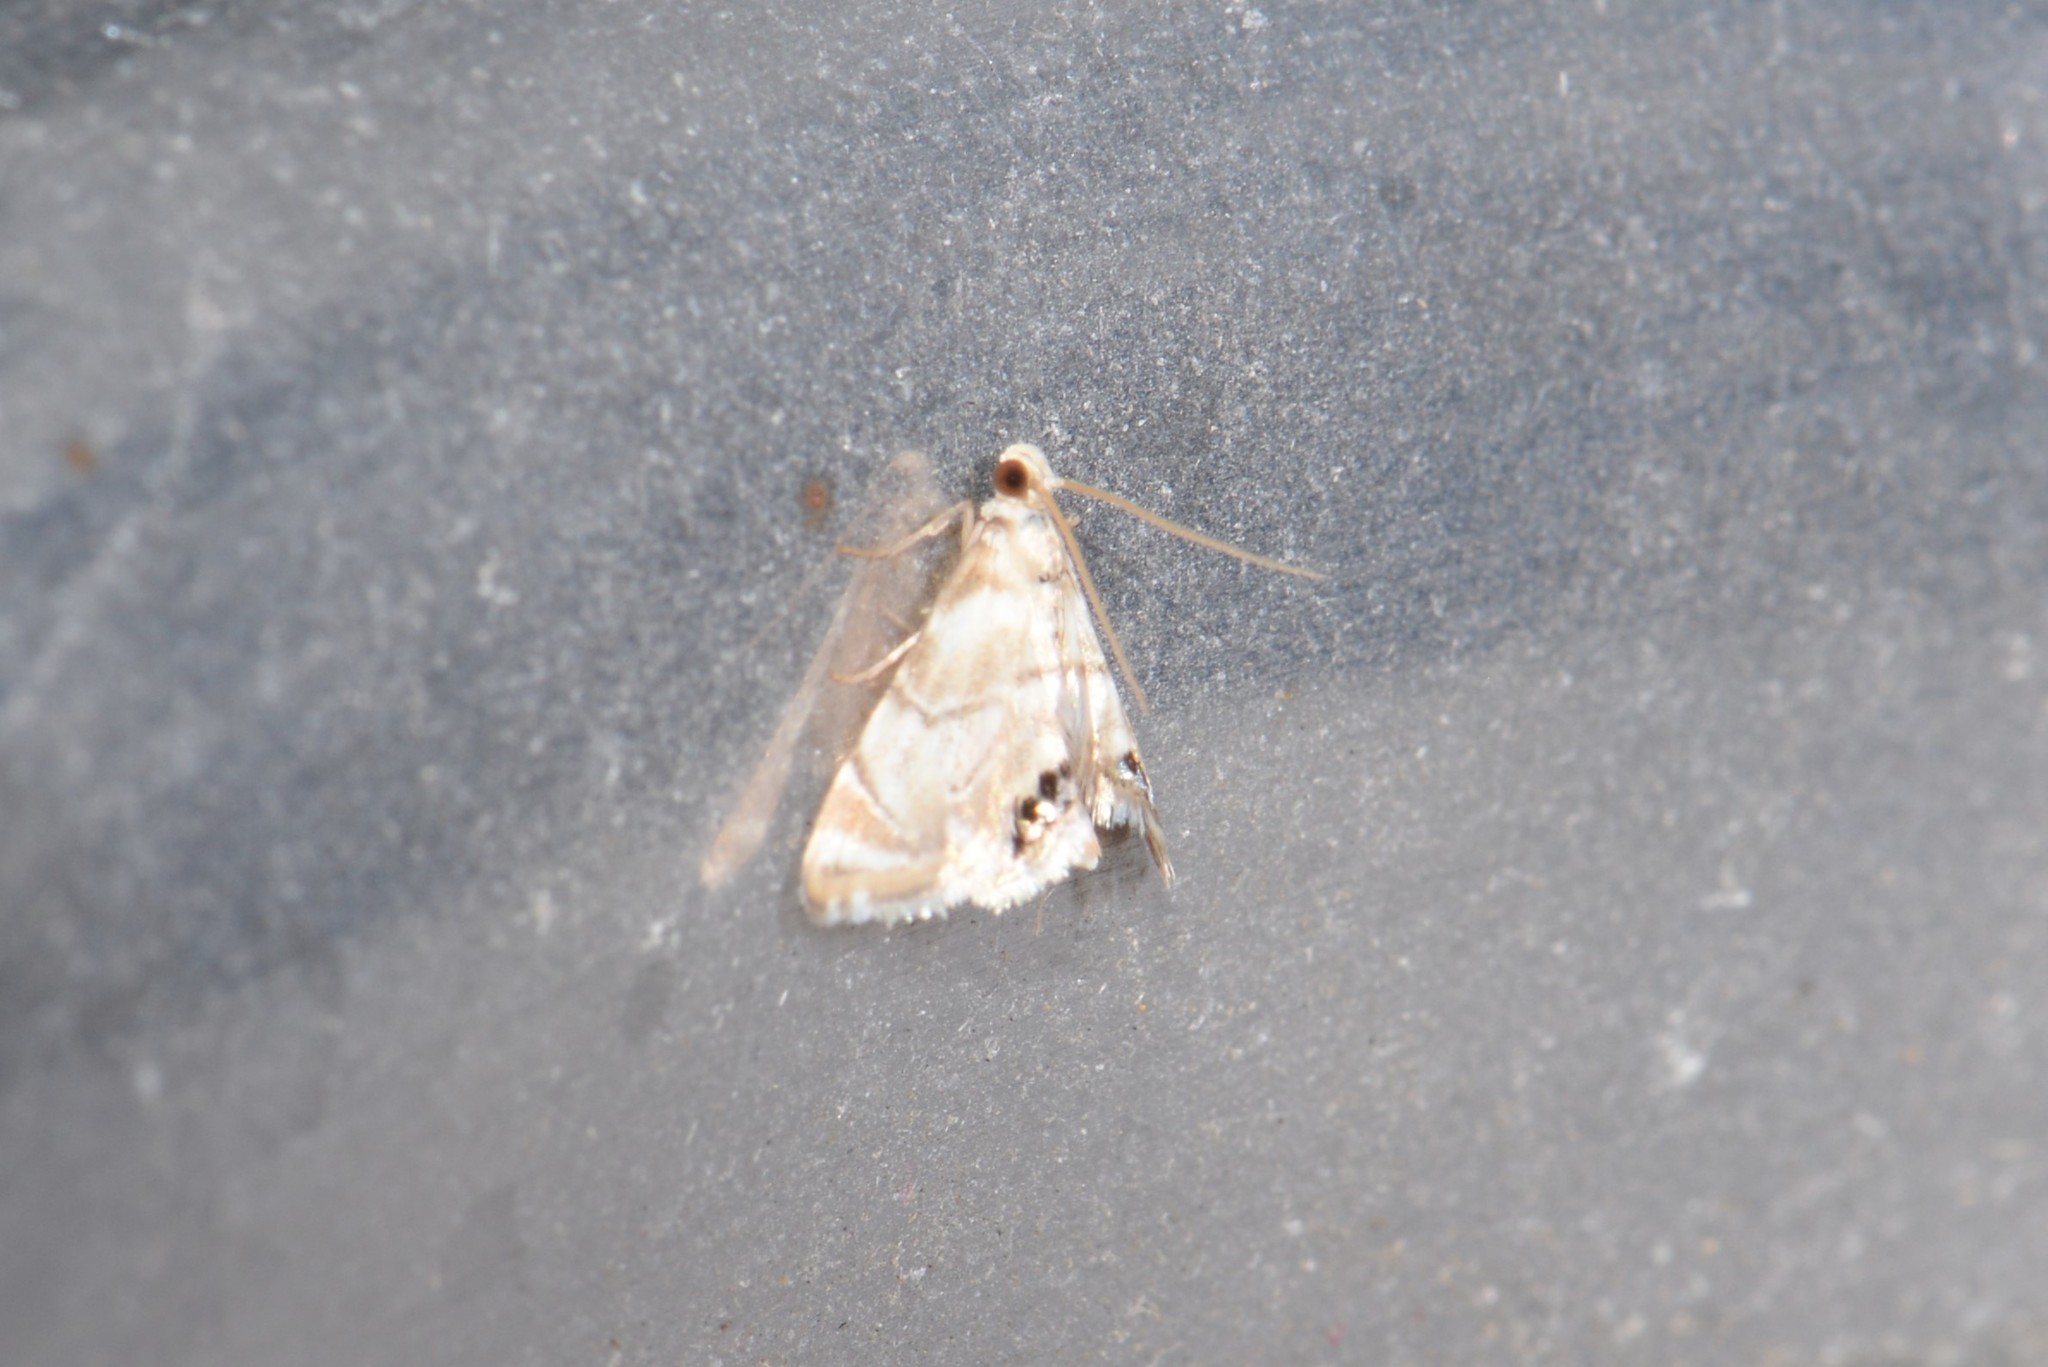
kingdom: Animalia
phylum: Arthropoda
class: Insecta
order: Lepidoptera
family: Crambidae
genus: Eoparargyractis
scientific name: Eoparargyractis plevie
